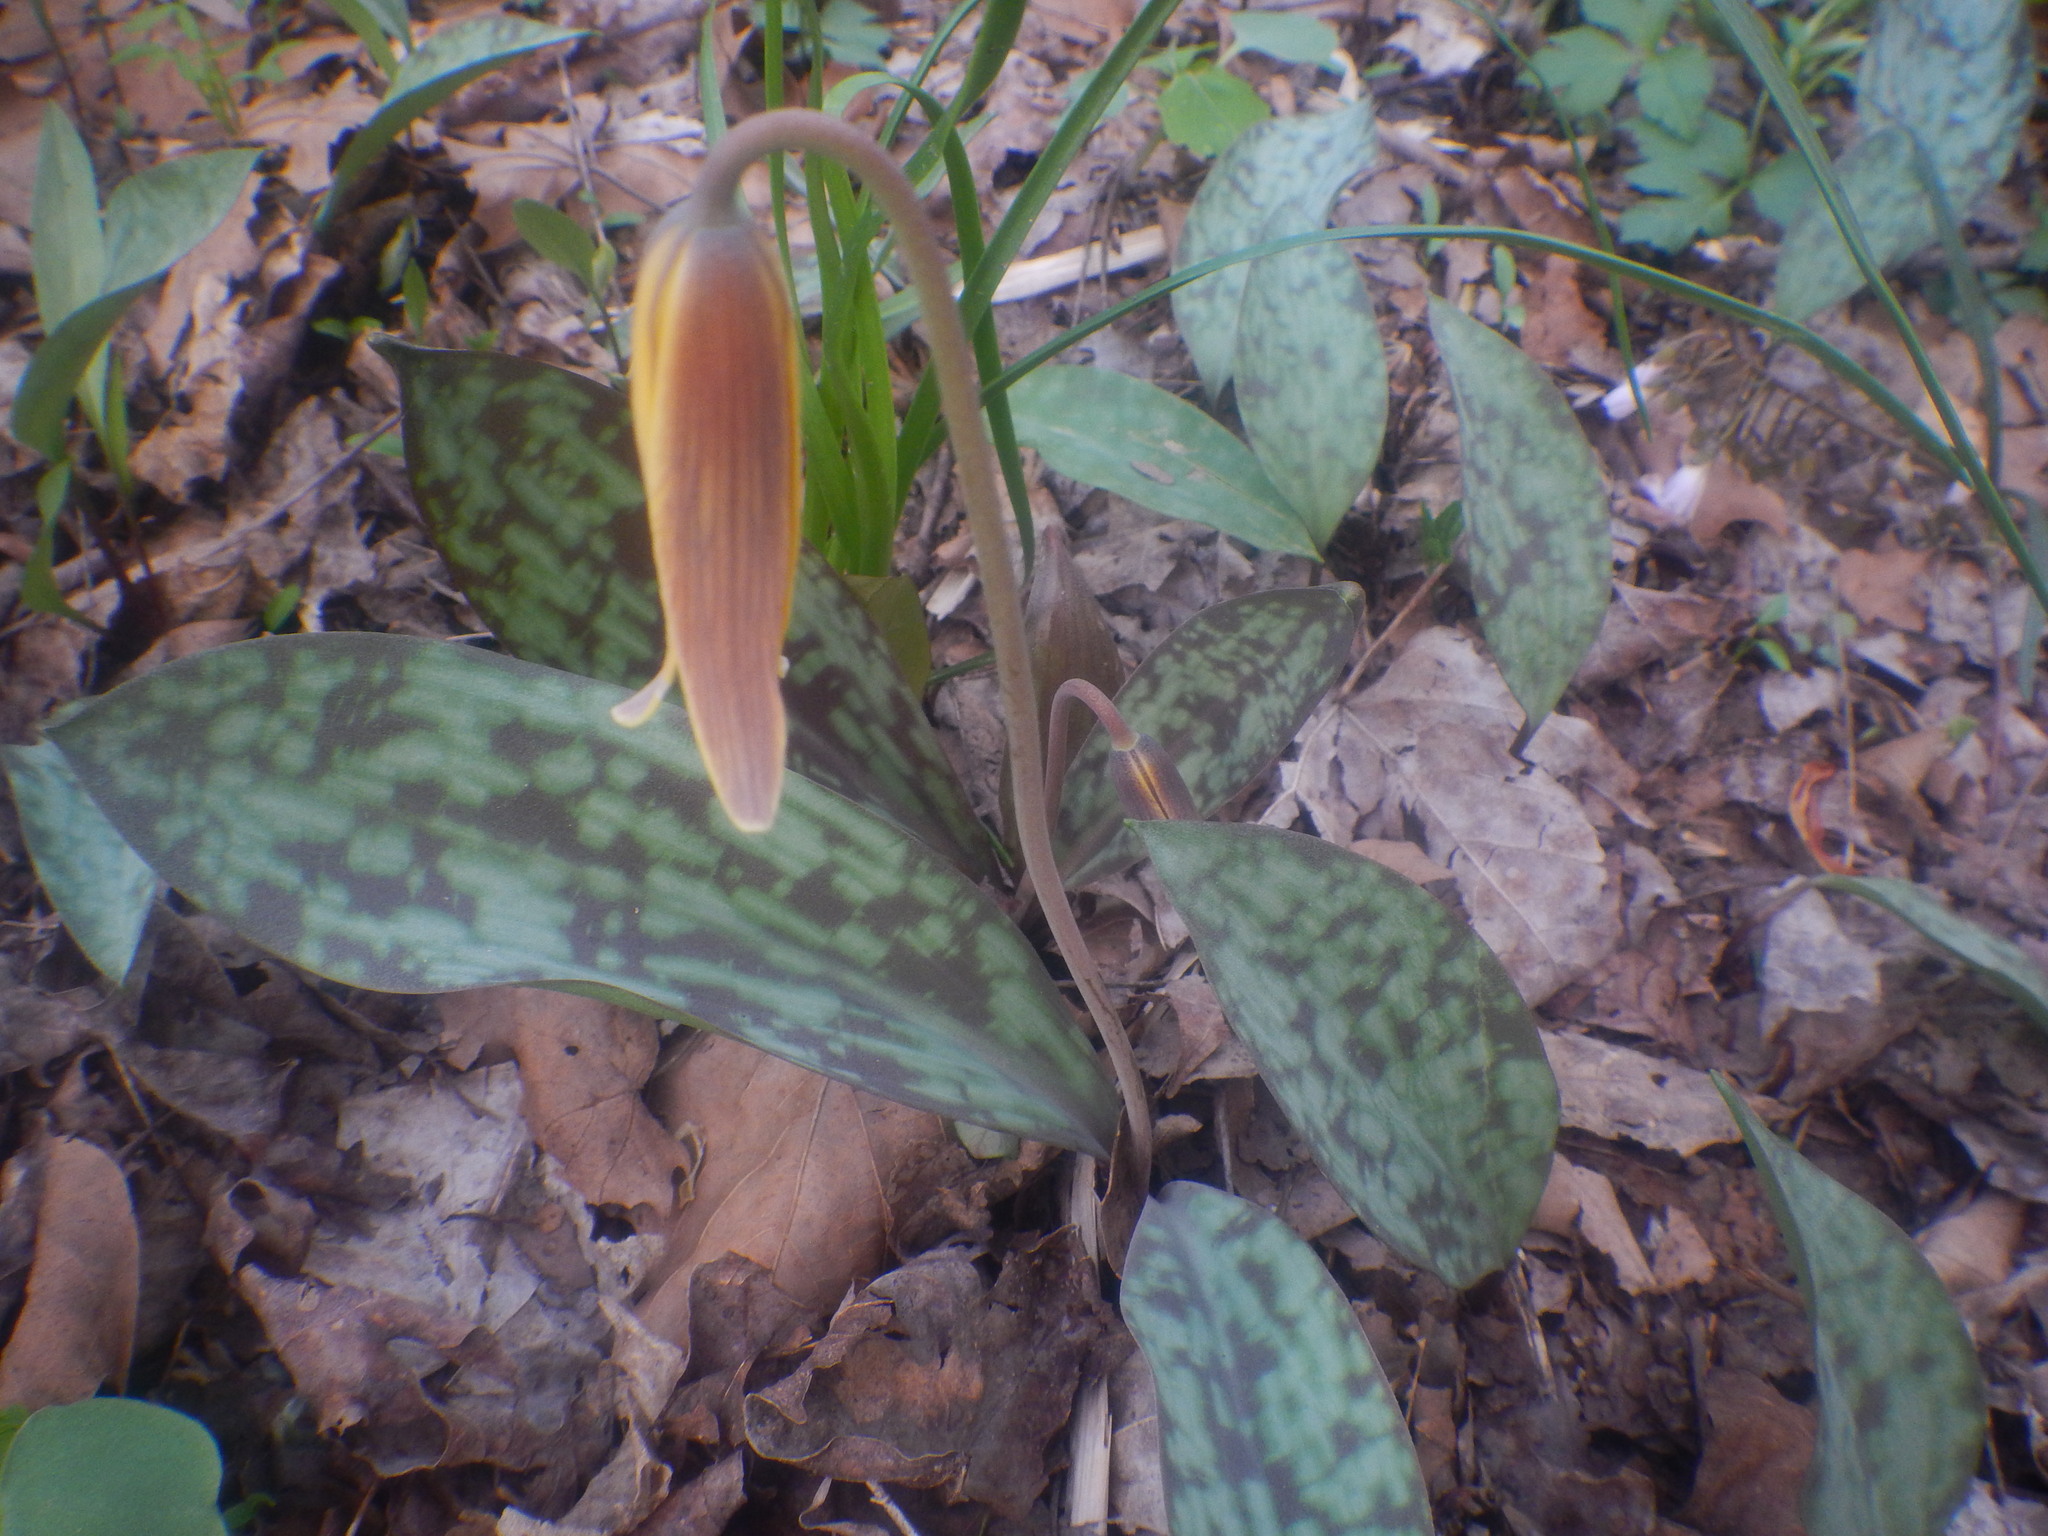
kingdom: Plantae
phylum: Tracheophyta
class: Liliopsida
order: Liliales
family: Liliaceae
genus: Erythronium
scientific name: Erythronium americanum
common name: Yellow adder's-tongue
